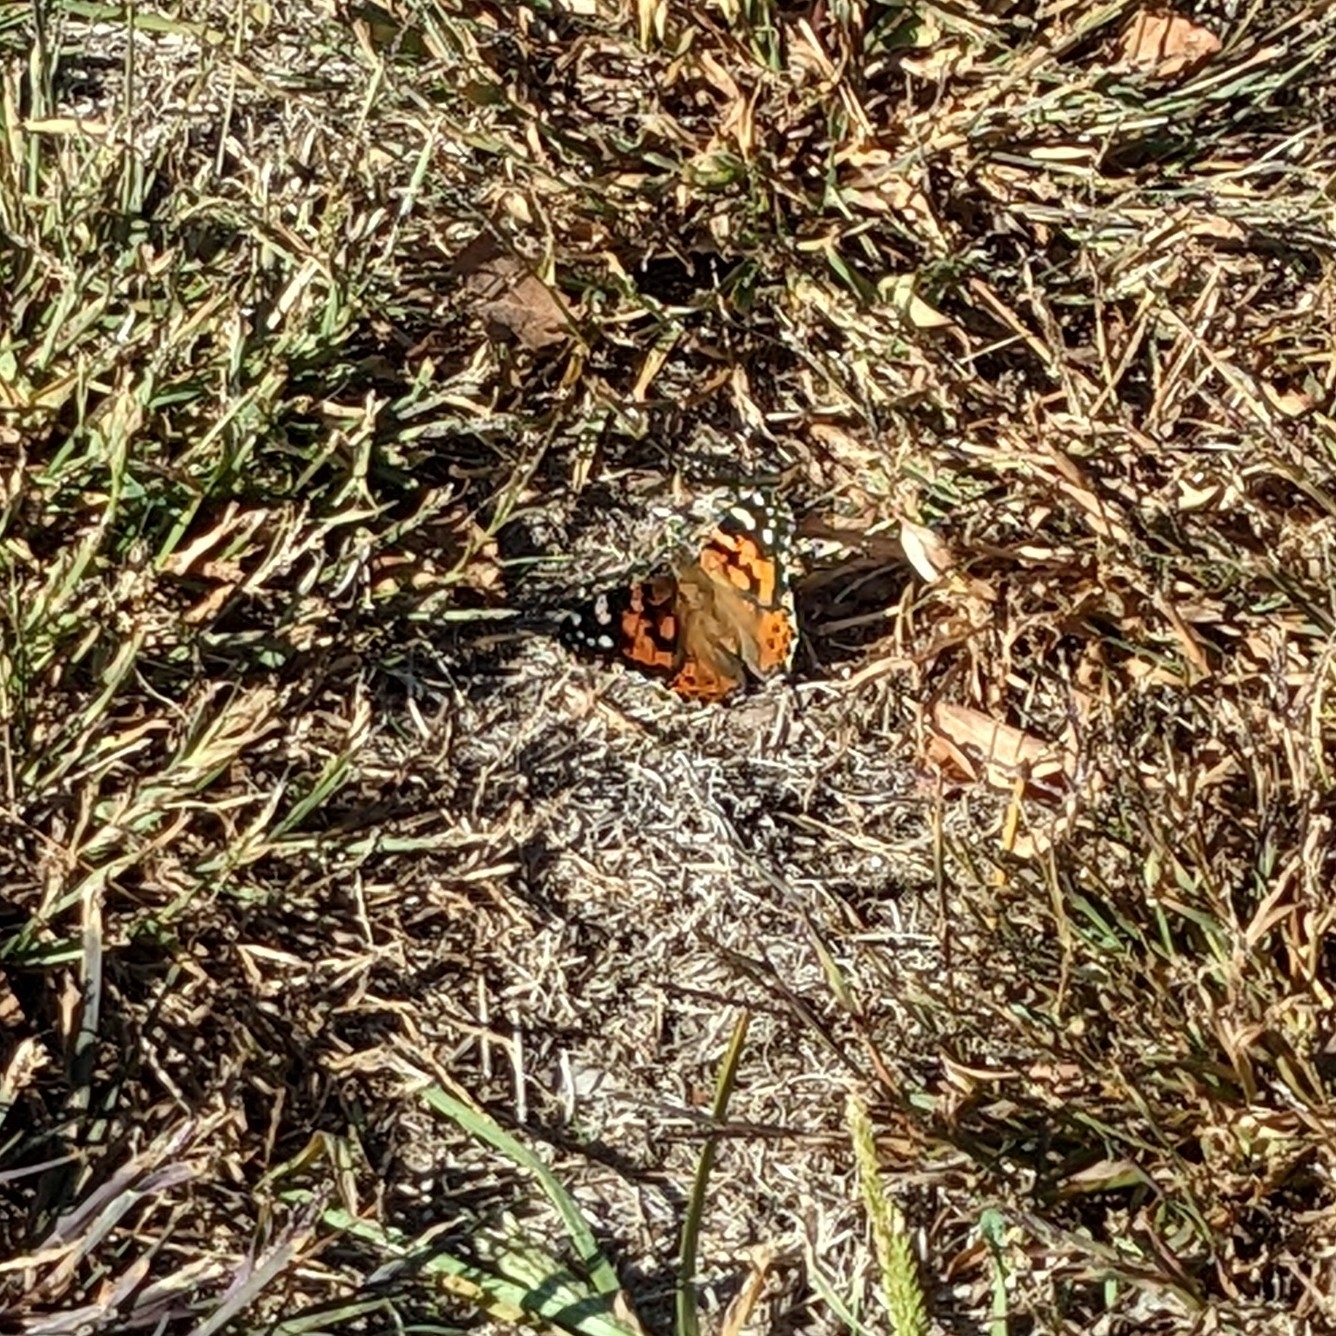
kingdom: Animalia
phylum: Arthropoda
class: Insecta
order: Lepidoptera
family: Nymphalidae
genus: Vanessa
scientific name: Vanessa cardui
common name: Painted lady
